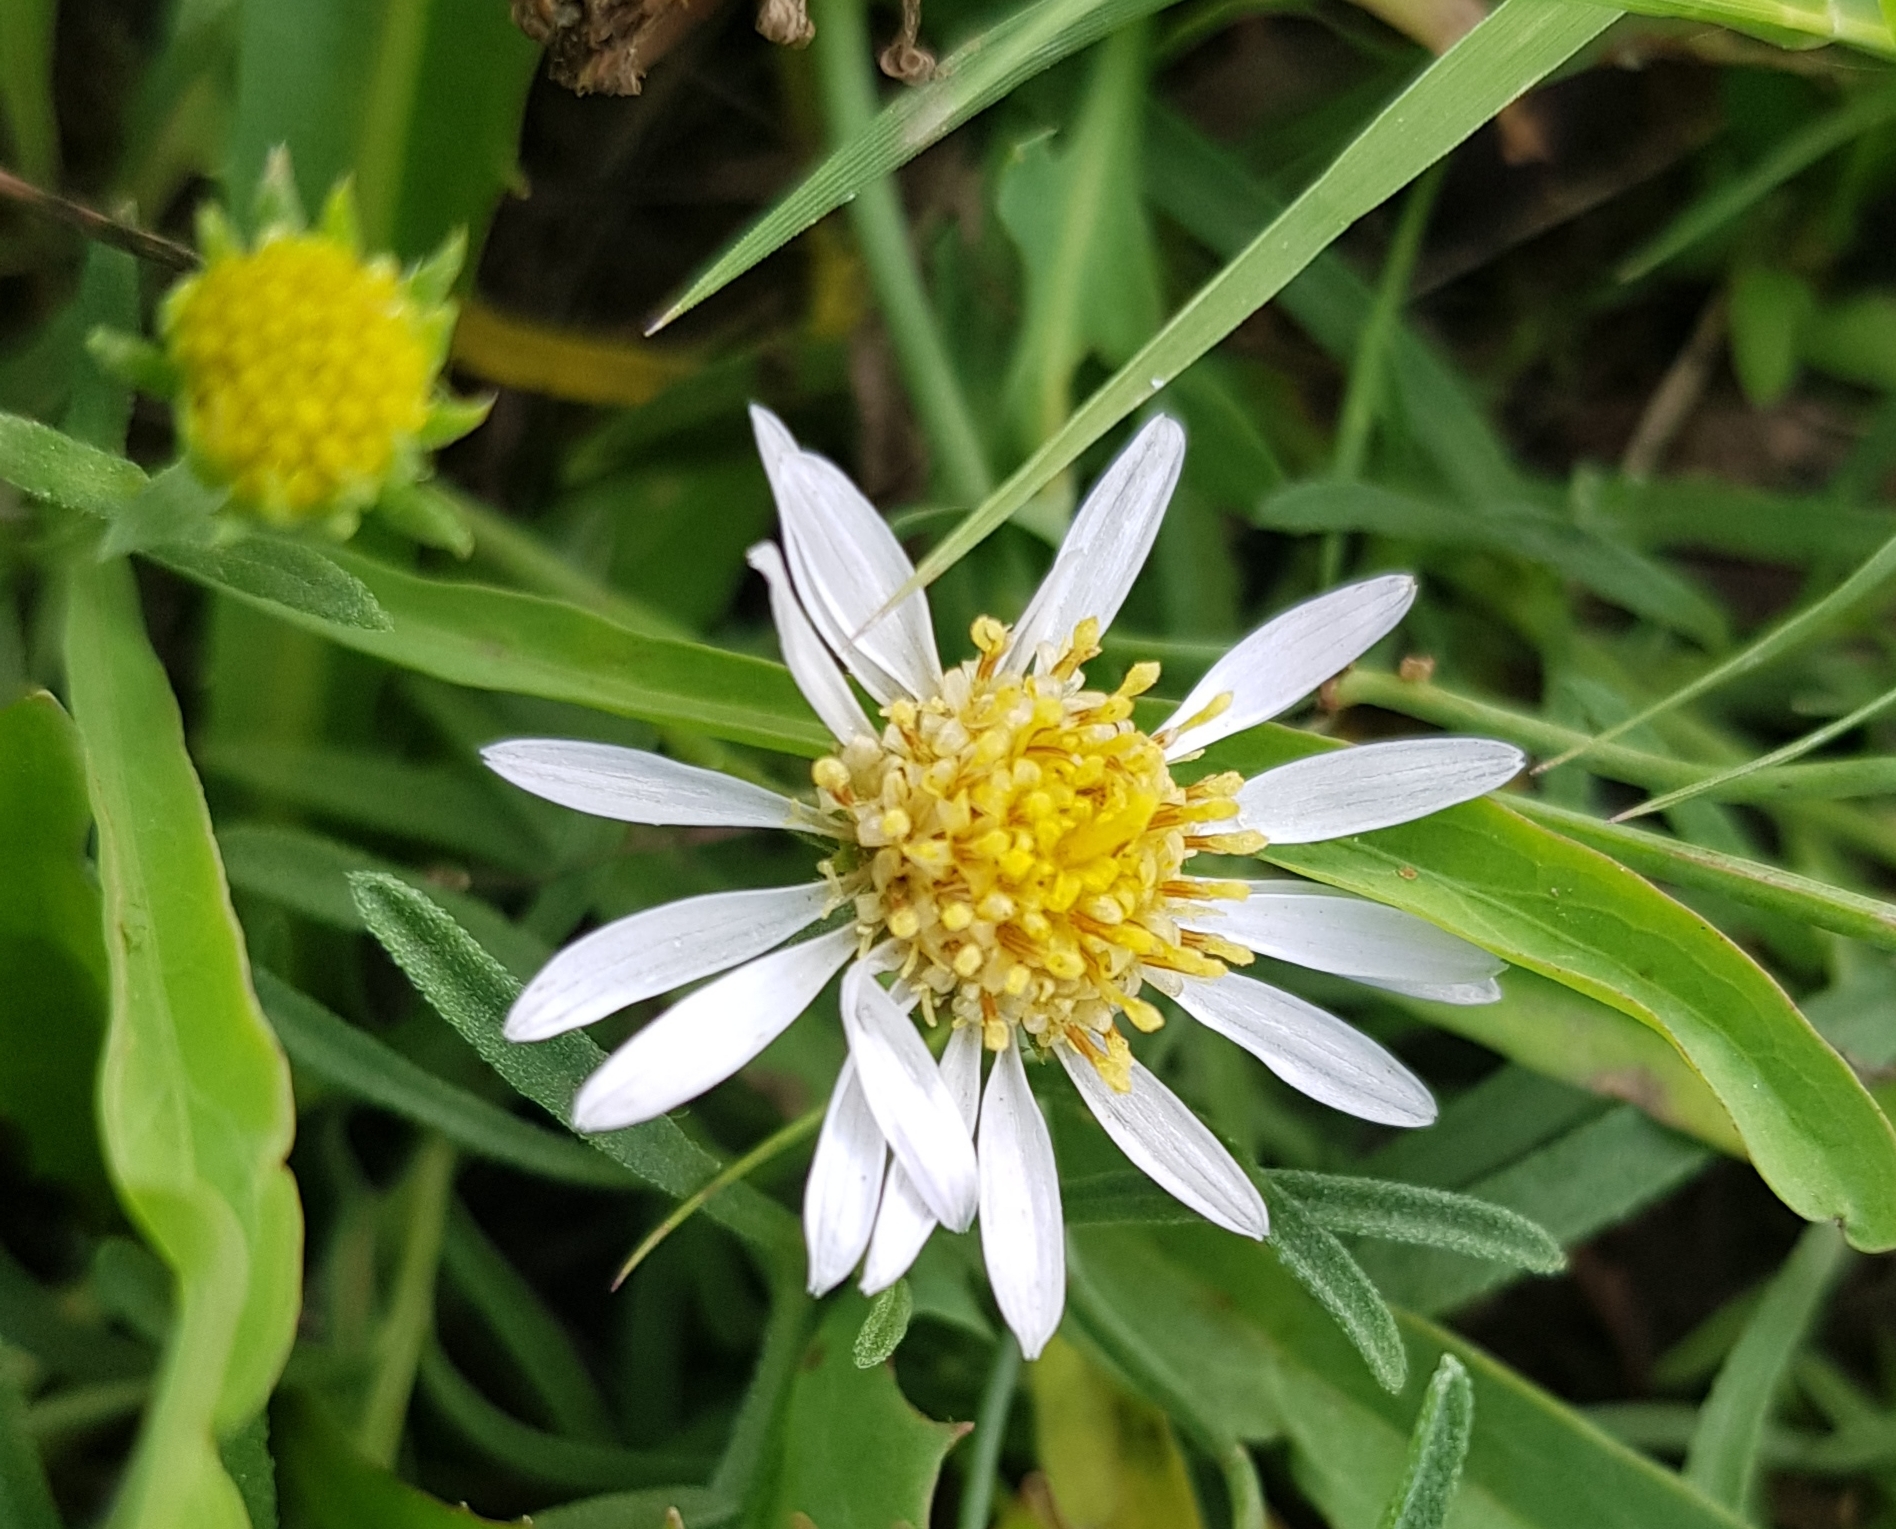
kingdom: Plantae
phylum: Tracheophyta
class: Magnoliopsida
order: Asterales
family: Asteraceae
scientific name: Asteraceae
